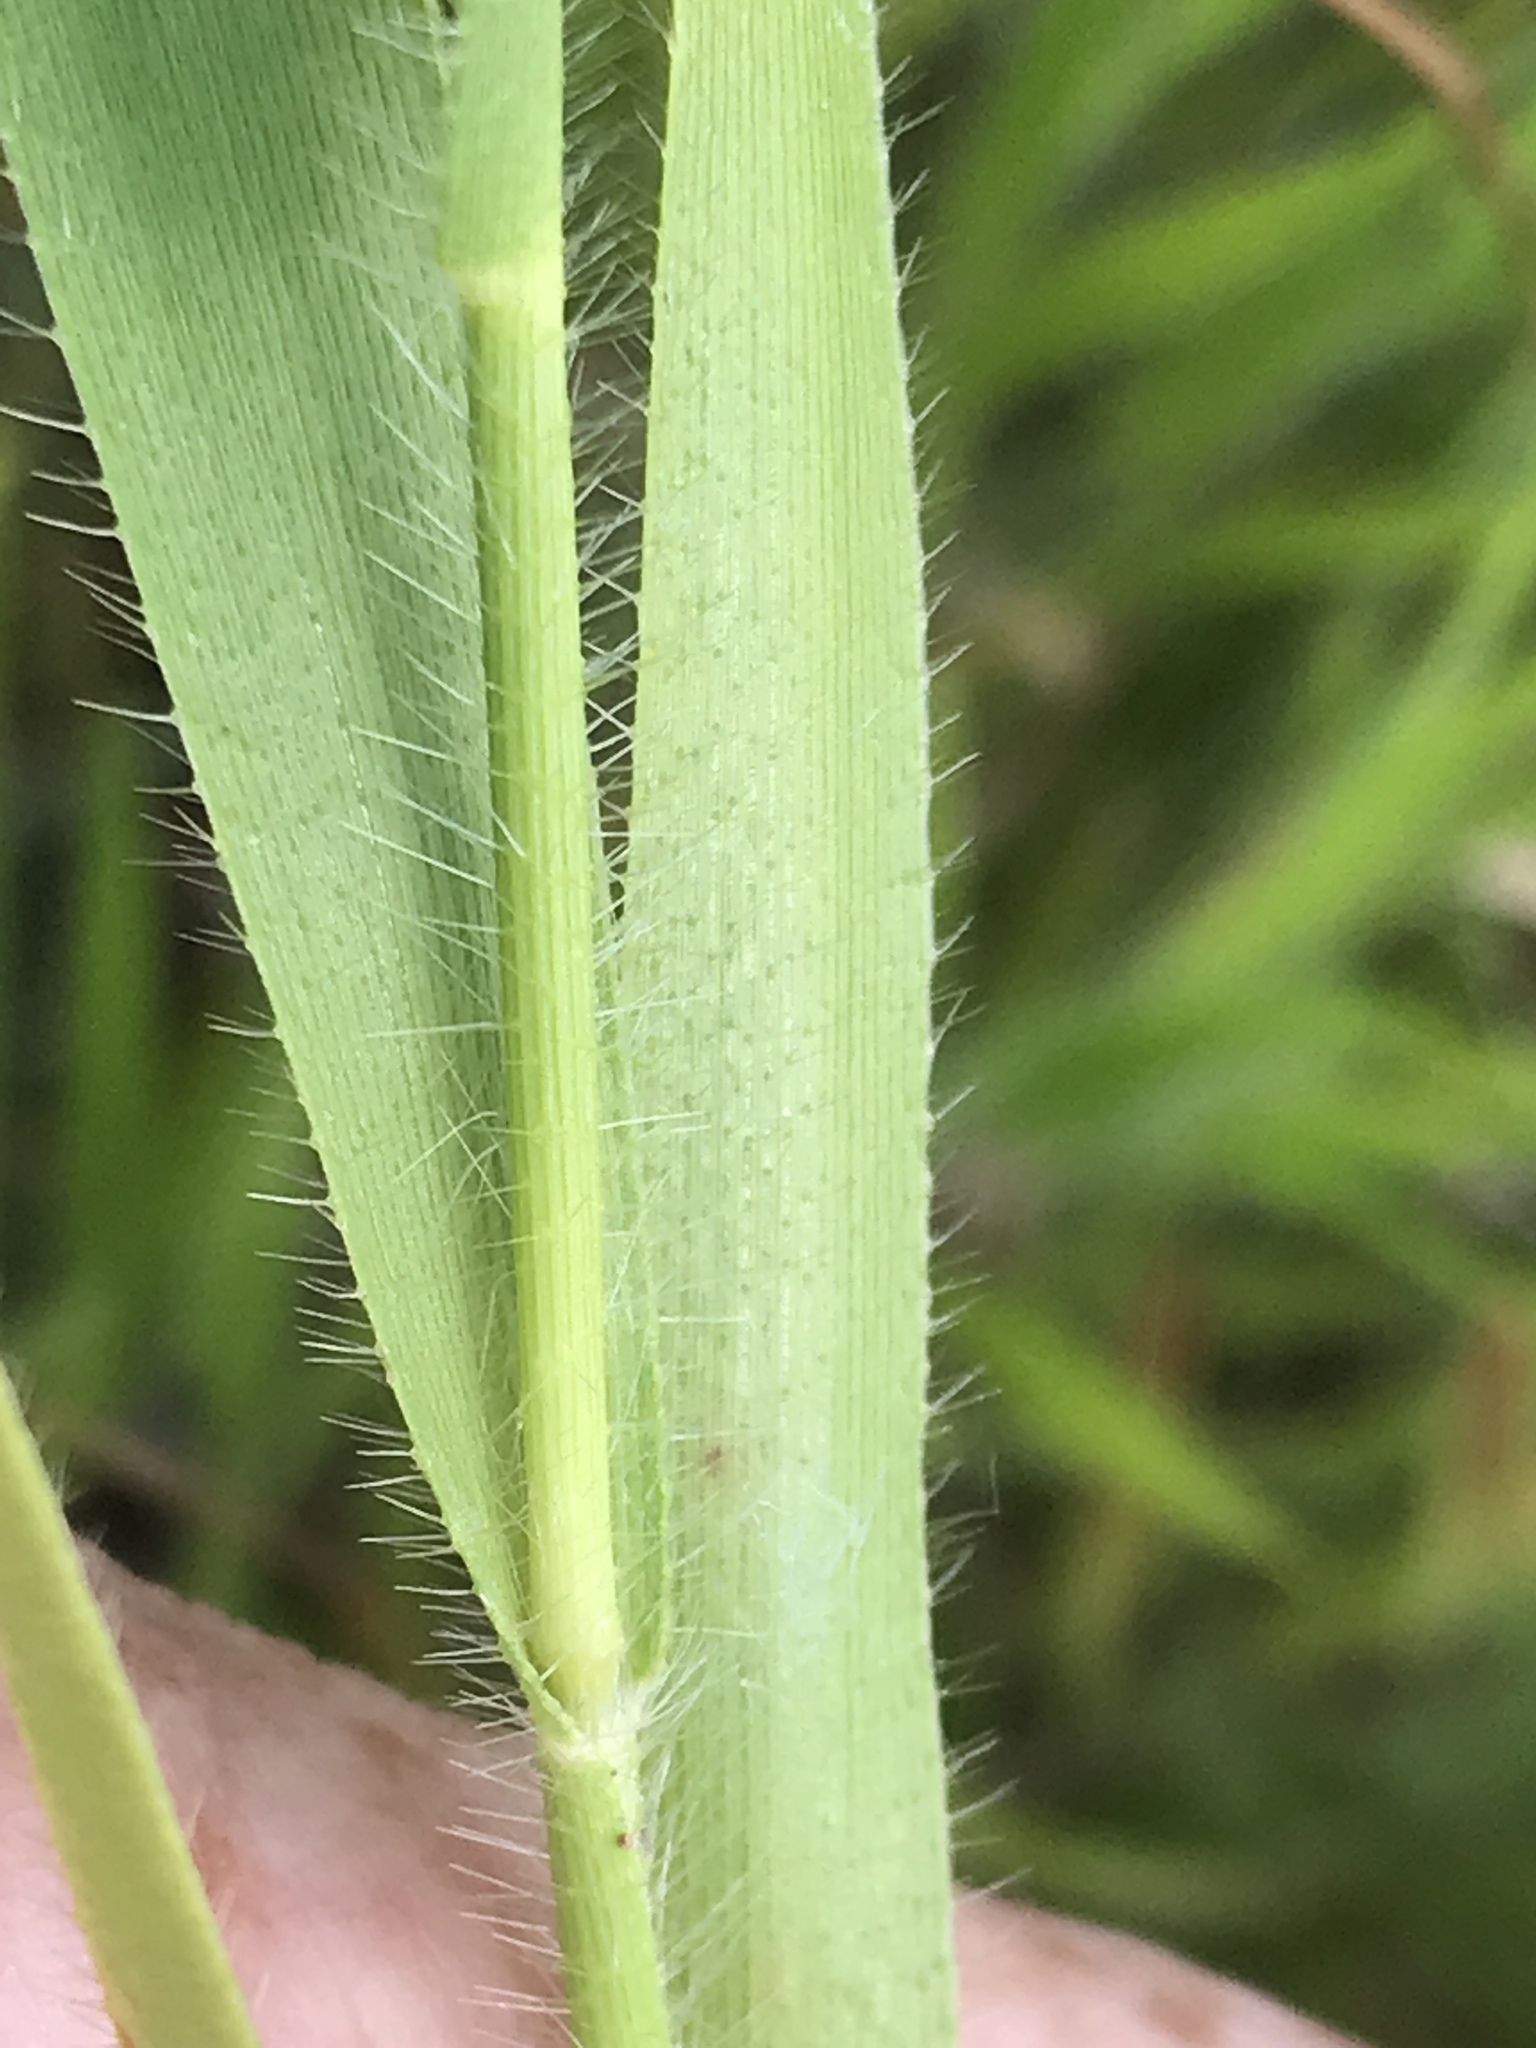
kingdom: Plantae
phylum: Tracheophyta
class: Liliopsida
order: Poales
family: Poaceae
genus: Amphicarpum
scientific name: Amphicarpum amphicarpon
